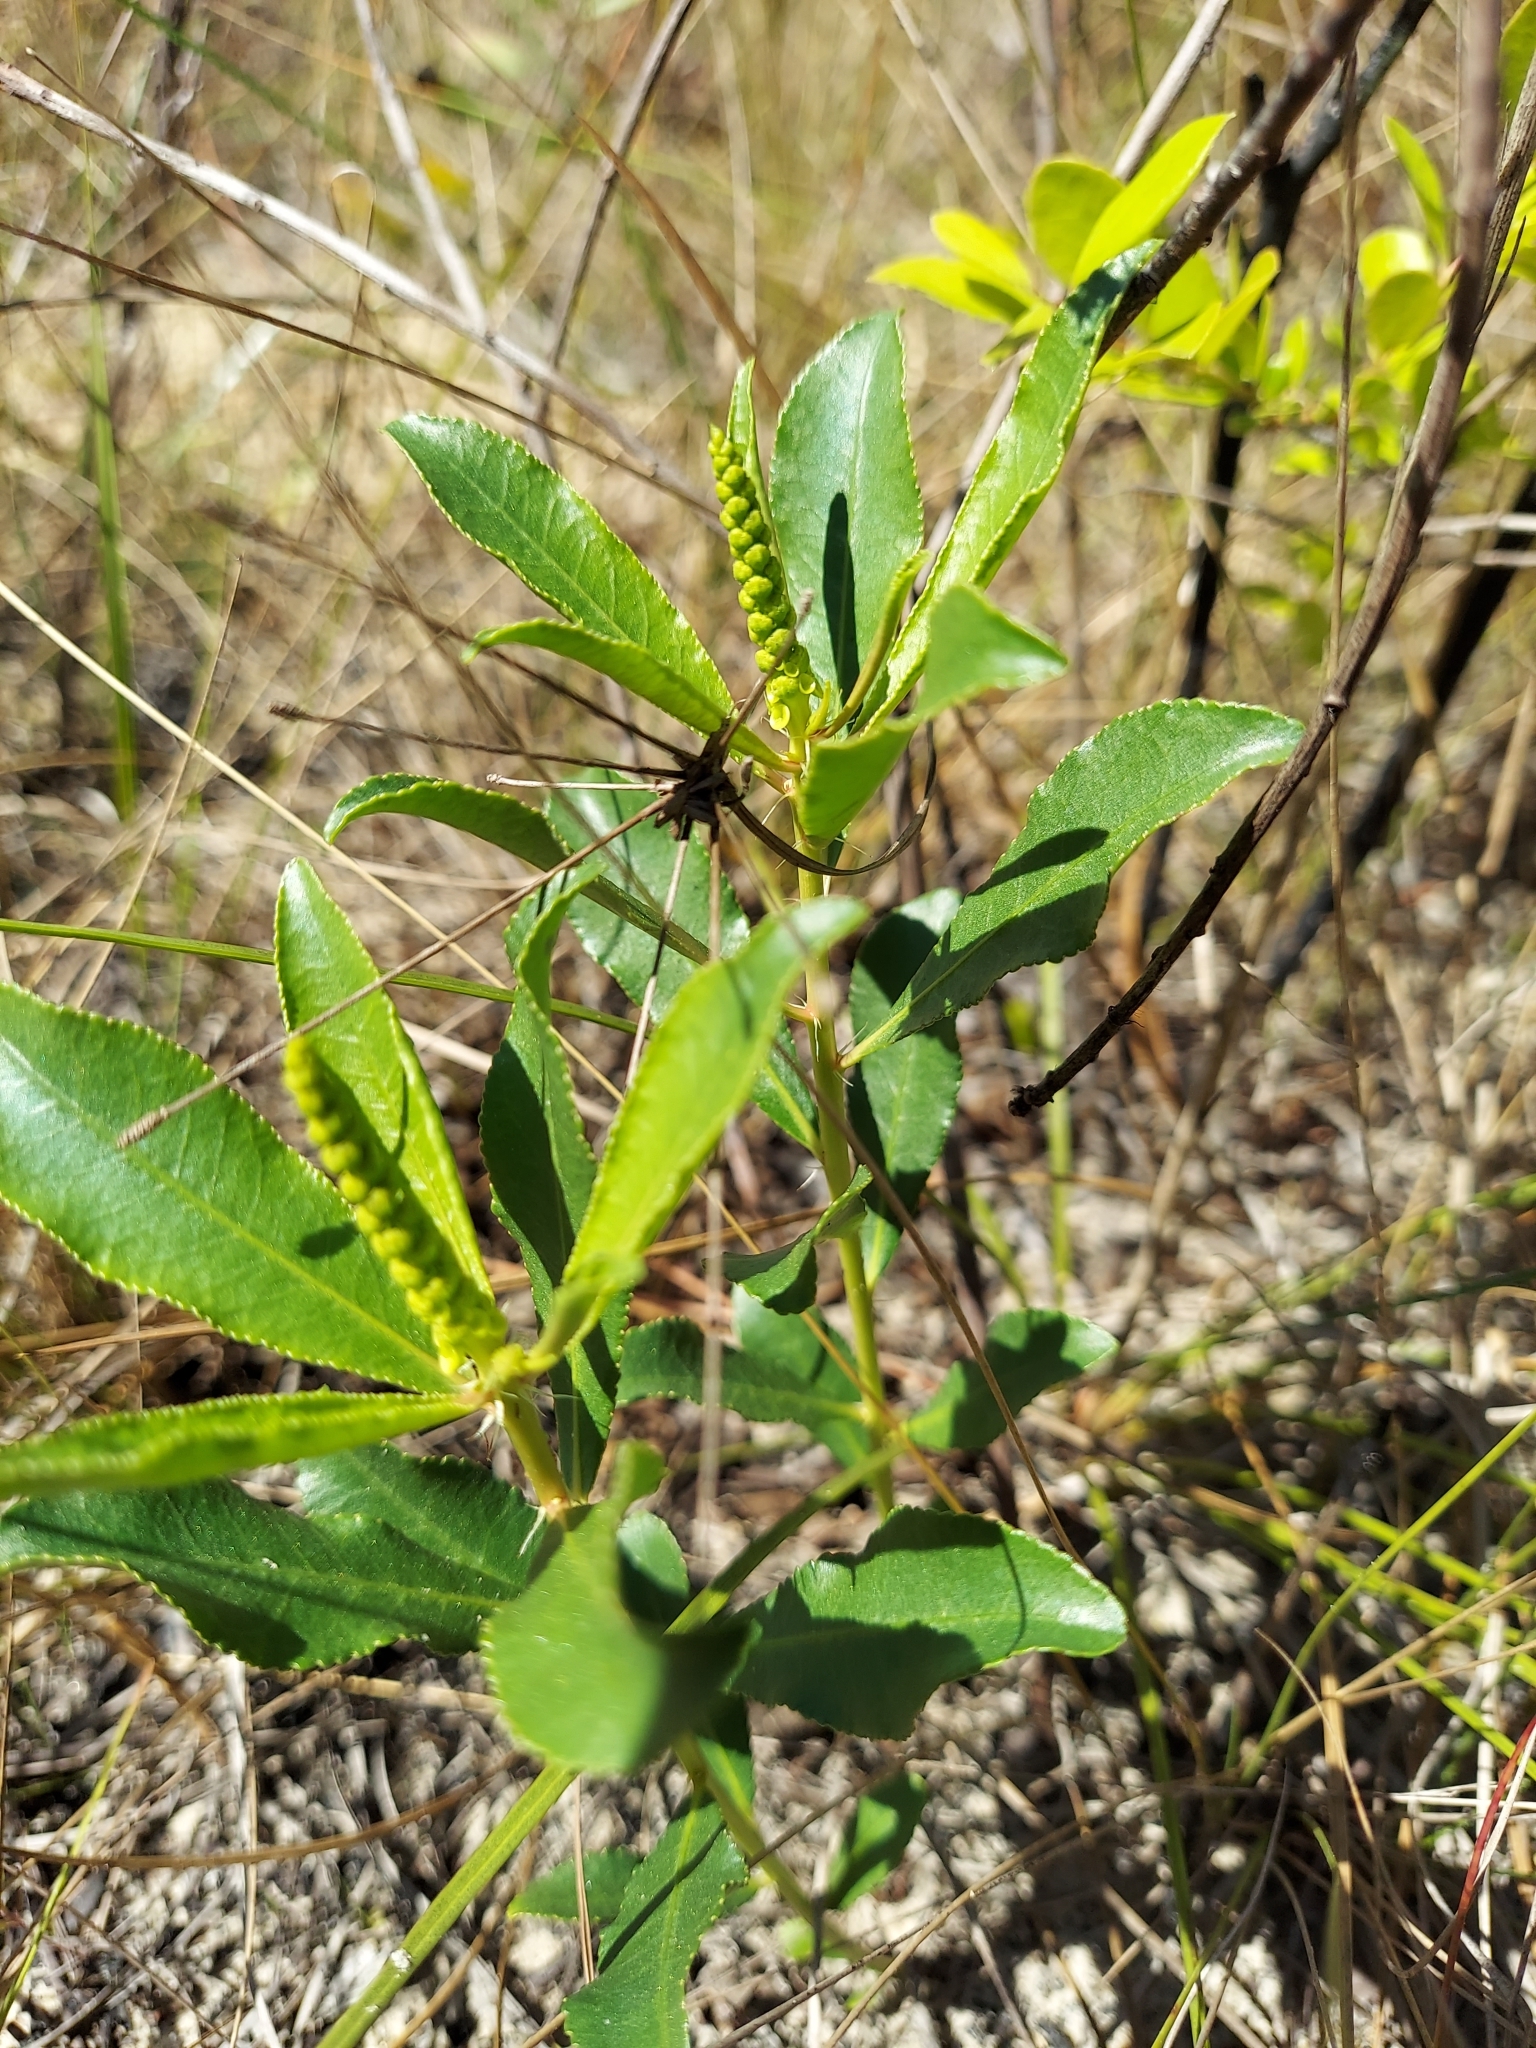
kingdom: Plantae
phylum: Tracheophyta
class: Magnoliopsida
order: Malpighiales
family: Euphorbiaceae
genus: Stillingia
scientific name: Stillingia sylvatica
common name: Queen's-delight
